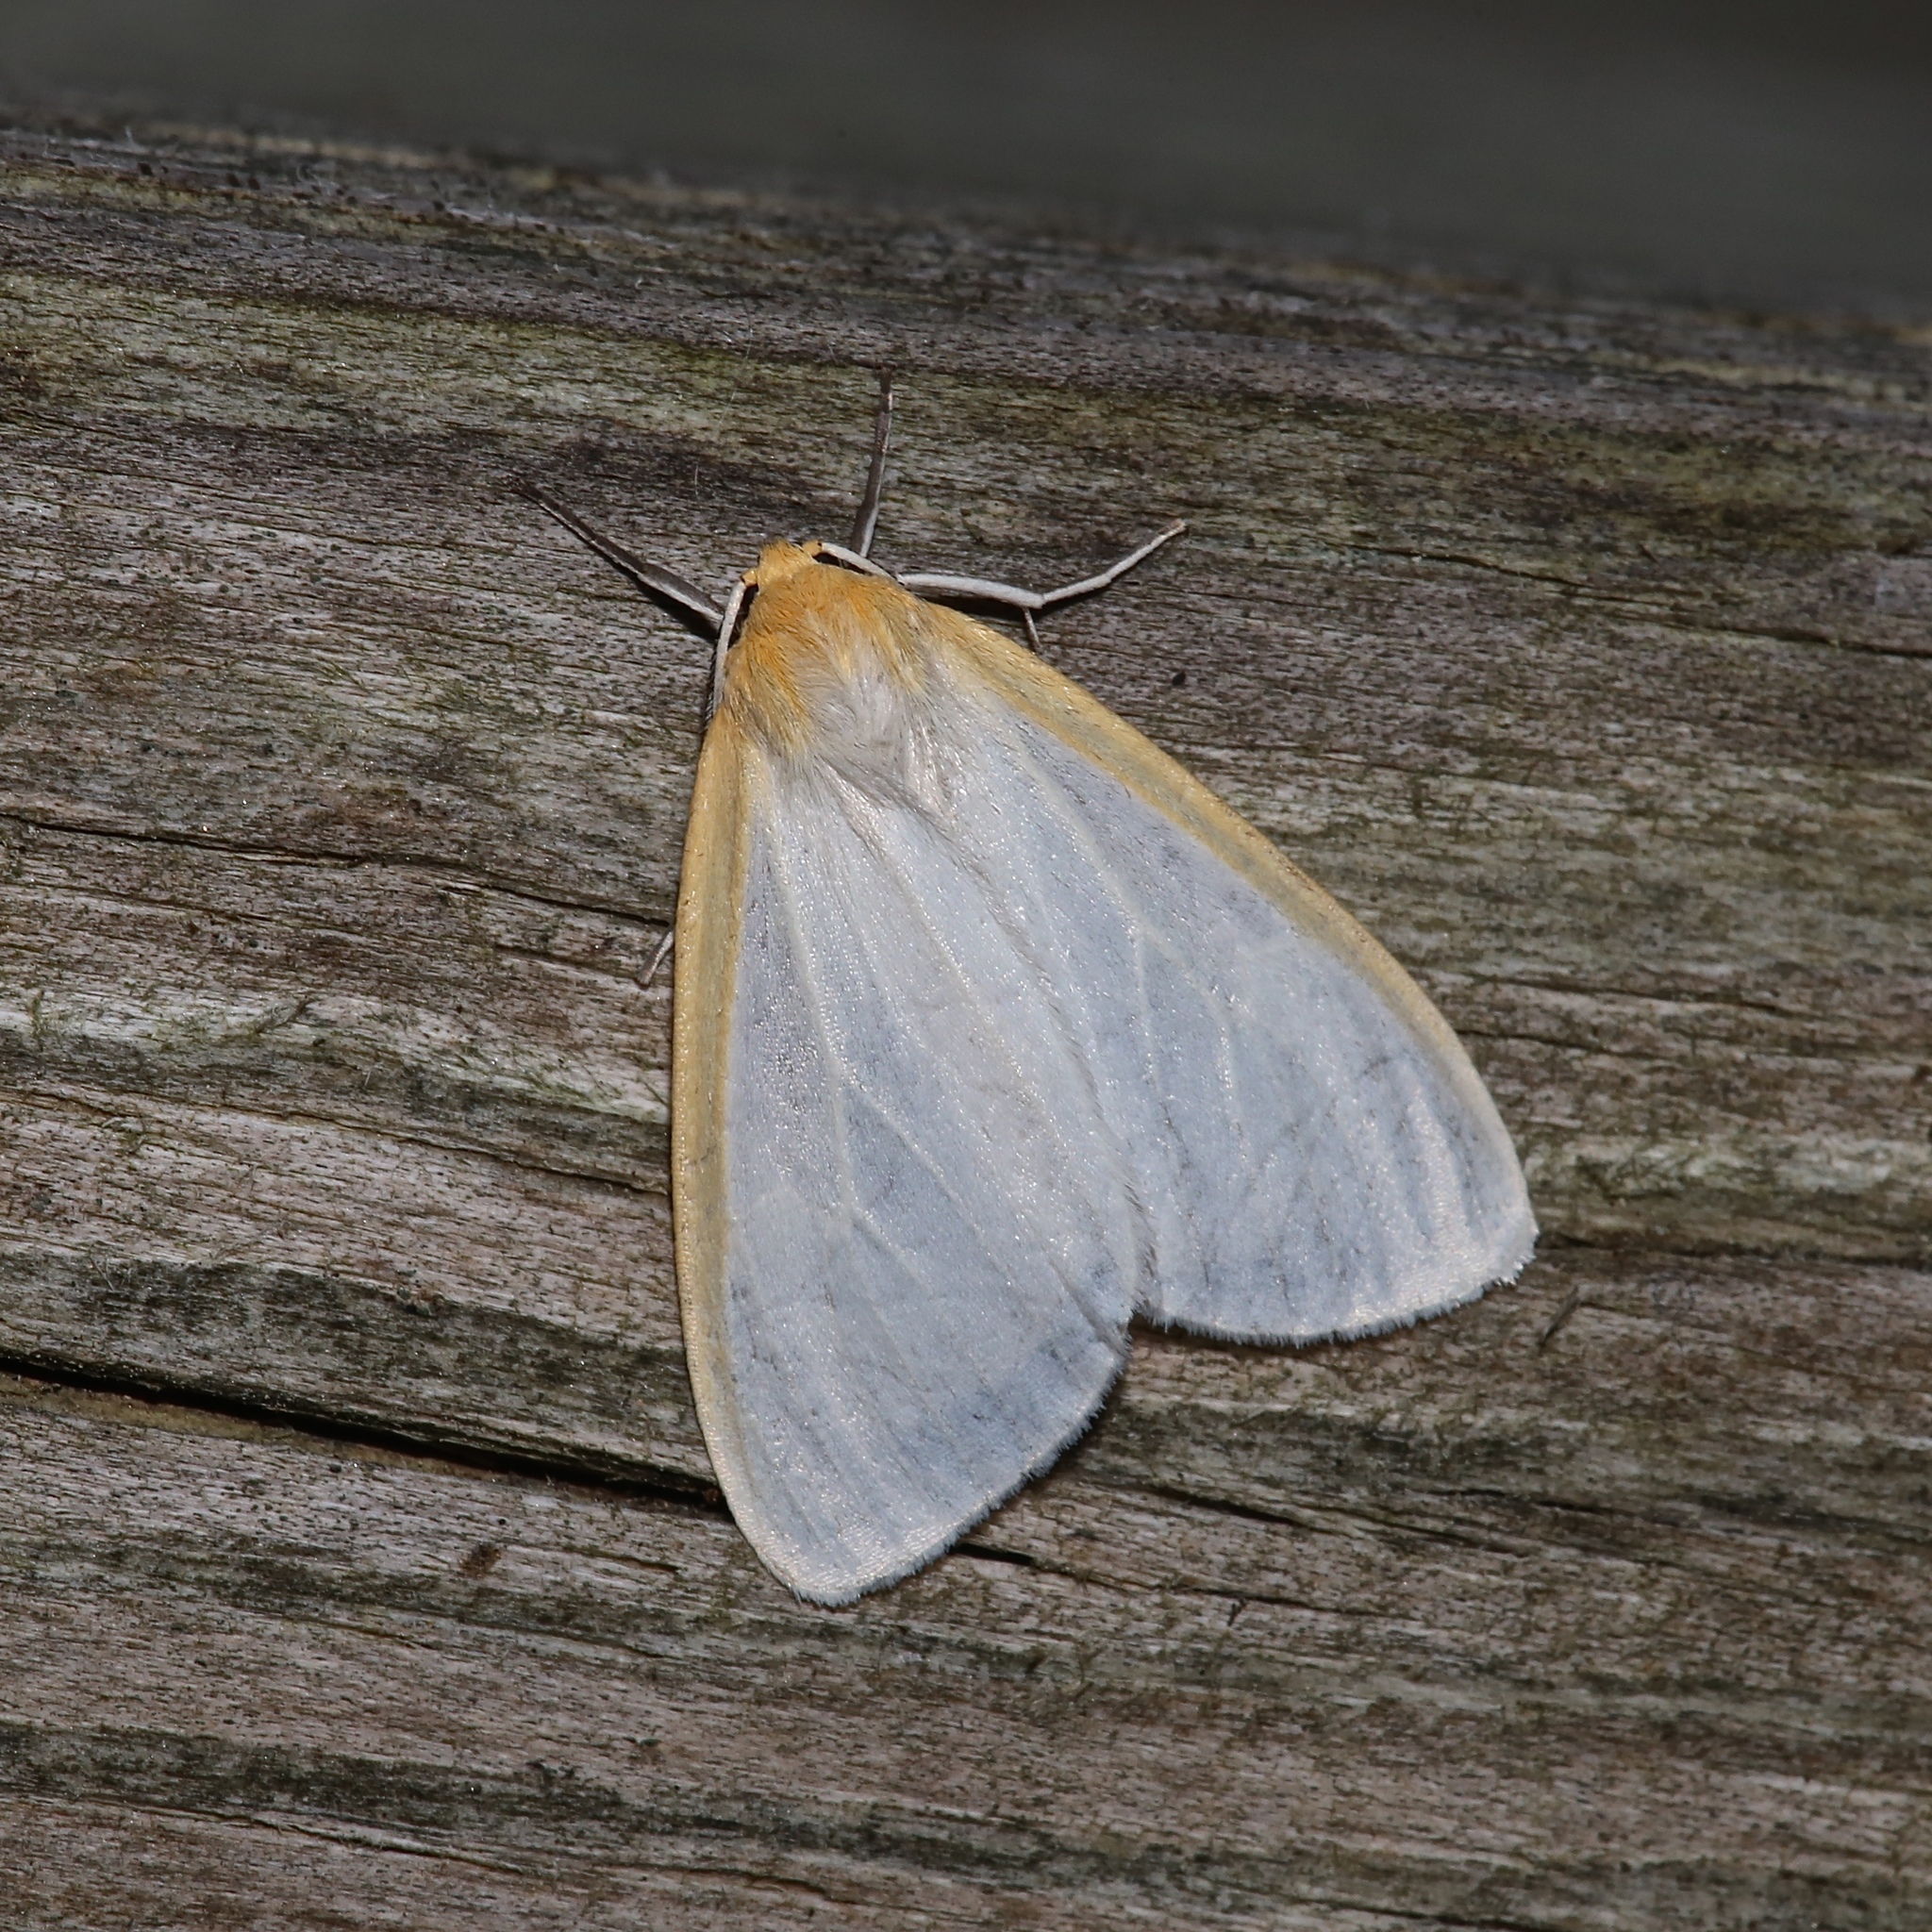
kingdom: Animalia
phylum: Arthropoda
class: Insecta
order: Lepidoptera
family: Erebidae
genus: Cycnia
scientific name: Cycnia tenera
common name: Delicate cycnia moth
